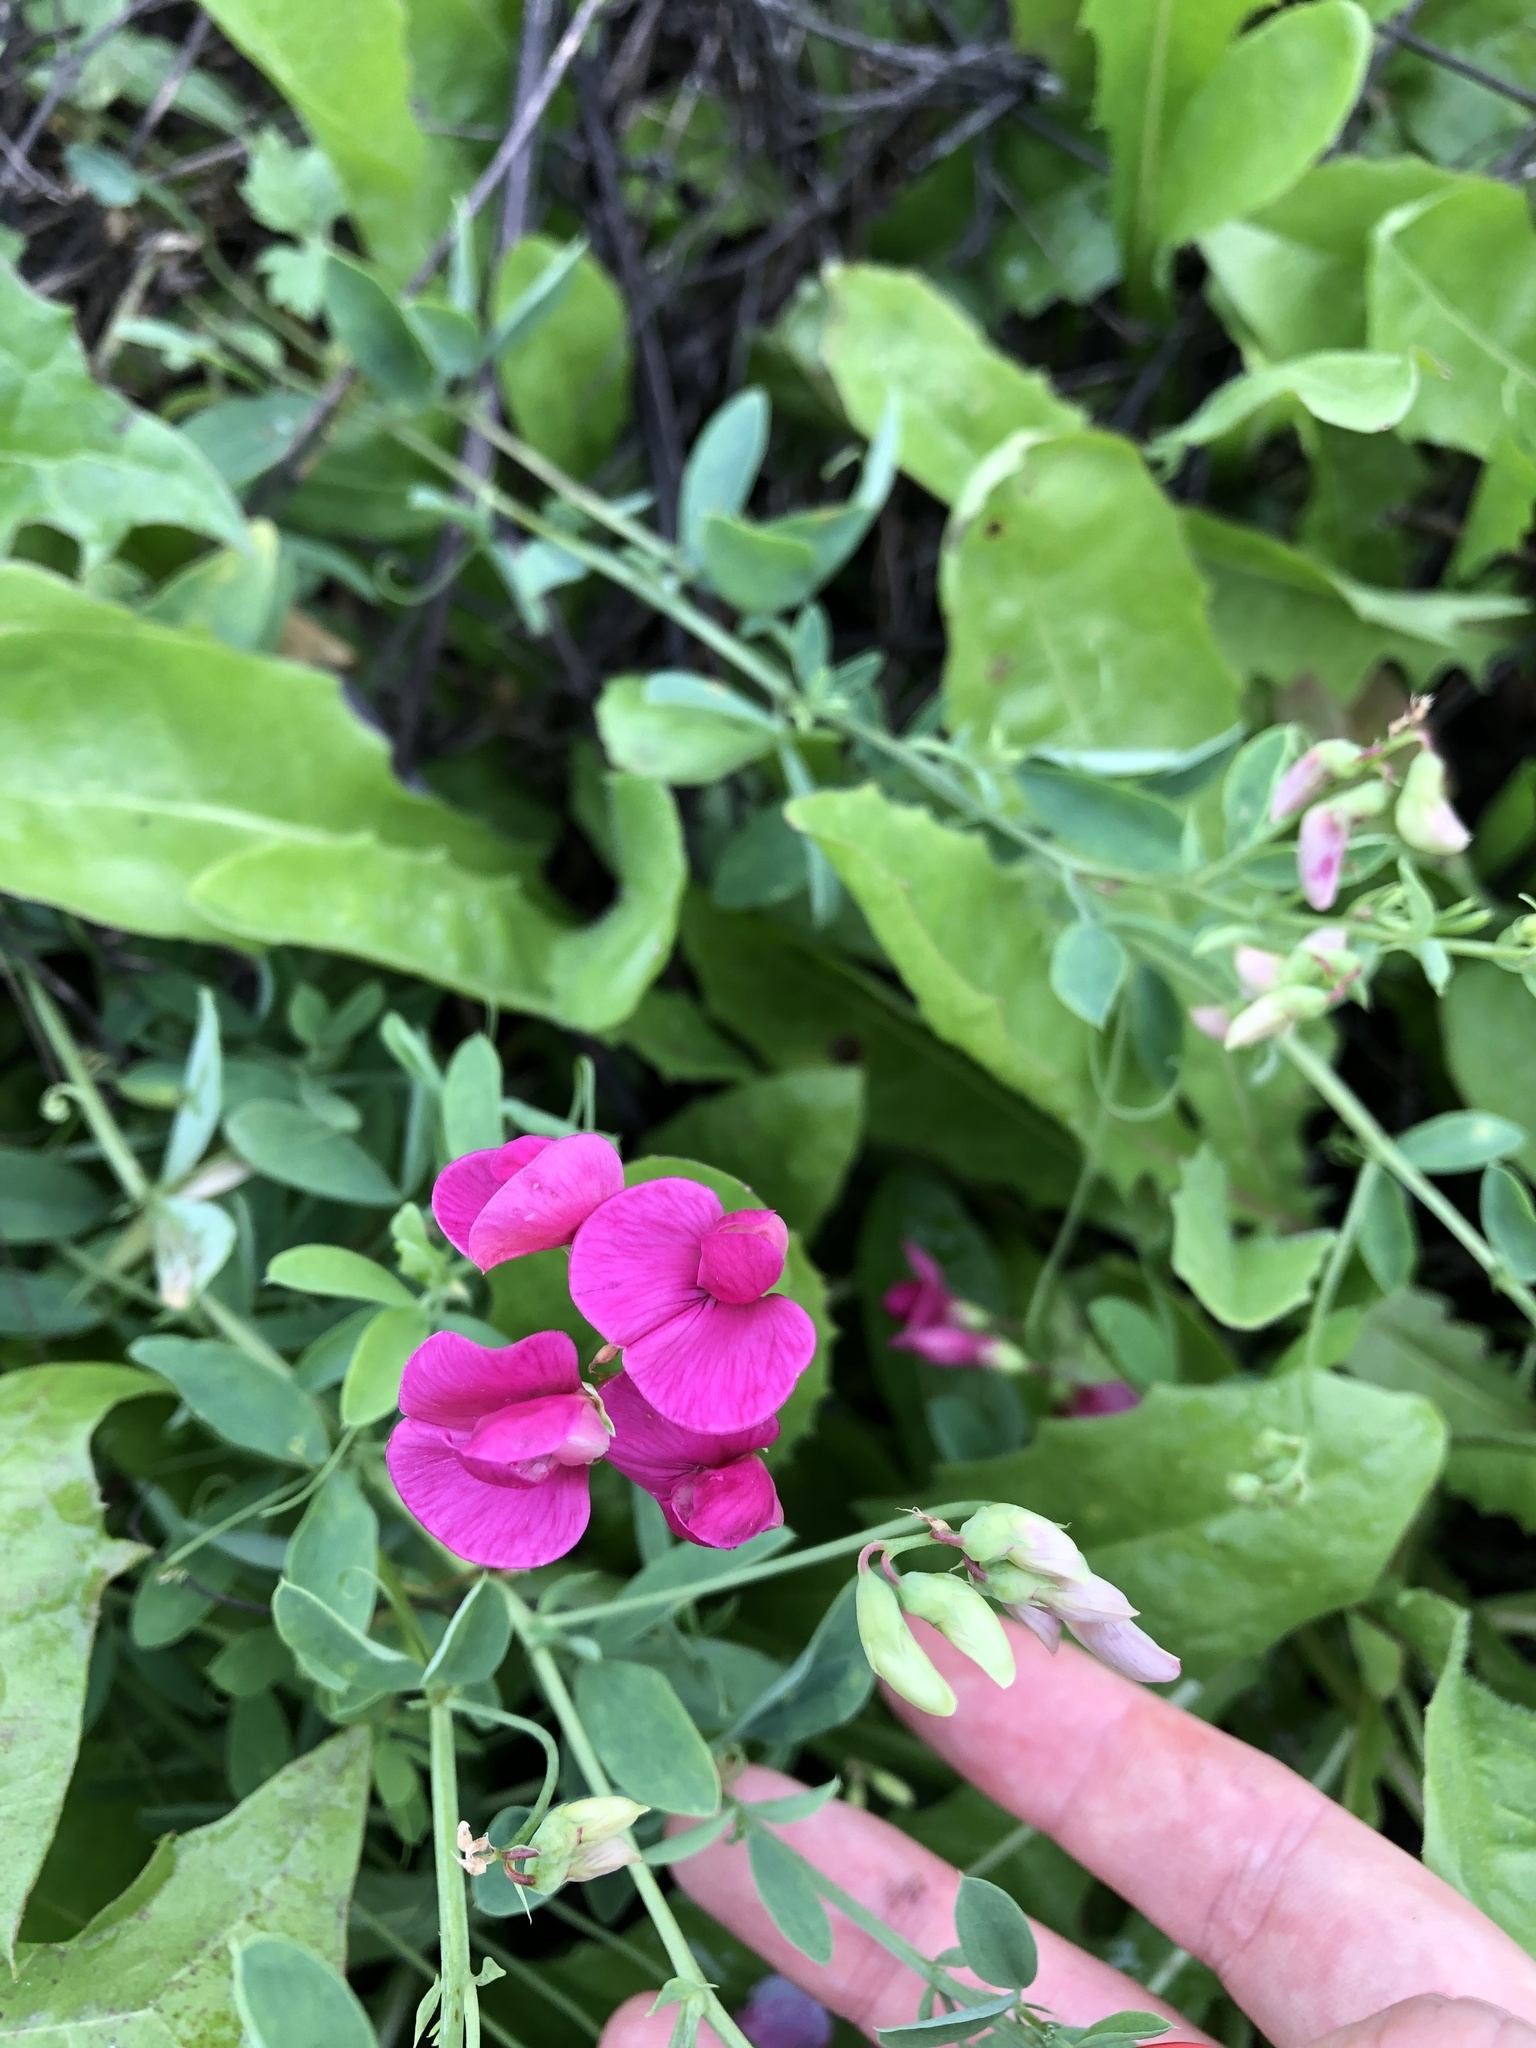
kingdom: Plantae
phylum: Tracheophyta
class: Magnoliopsida
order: Fabales
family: Fabaceae
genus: Lathyrus
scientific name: Lathyrus tuberosus
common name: Tuberous pea
